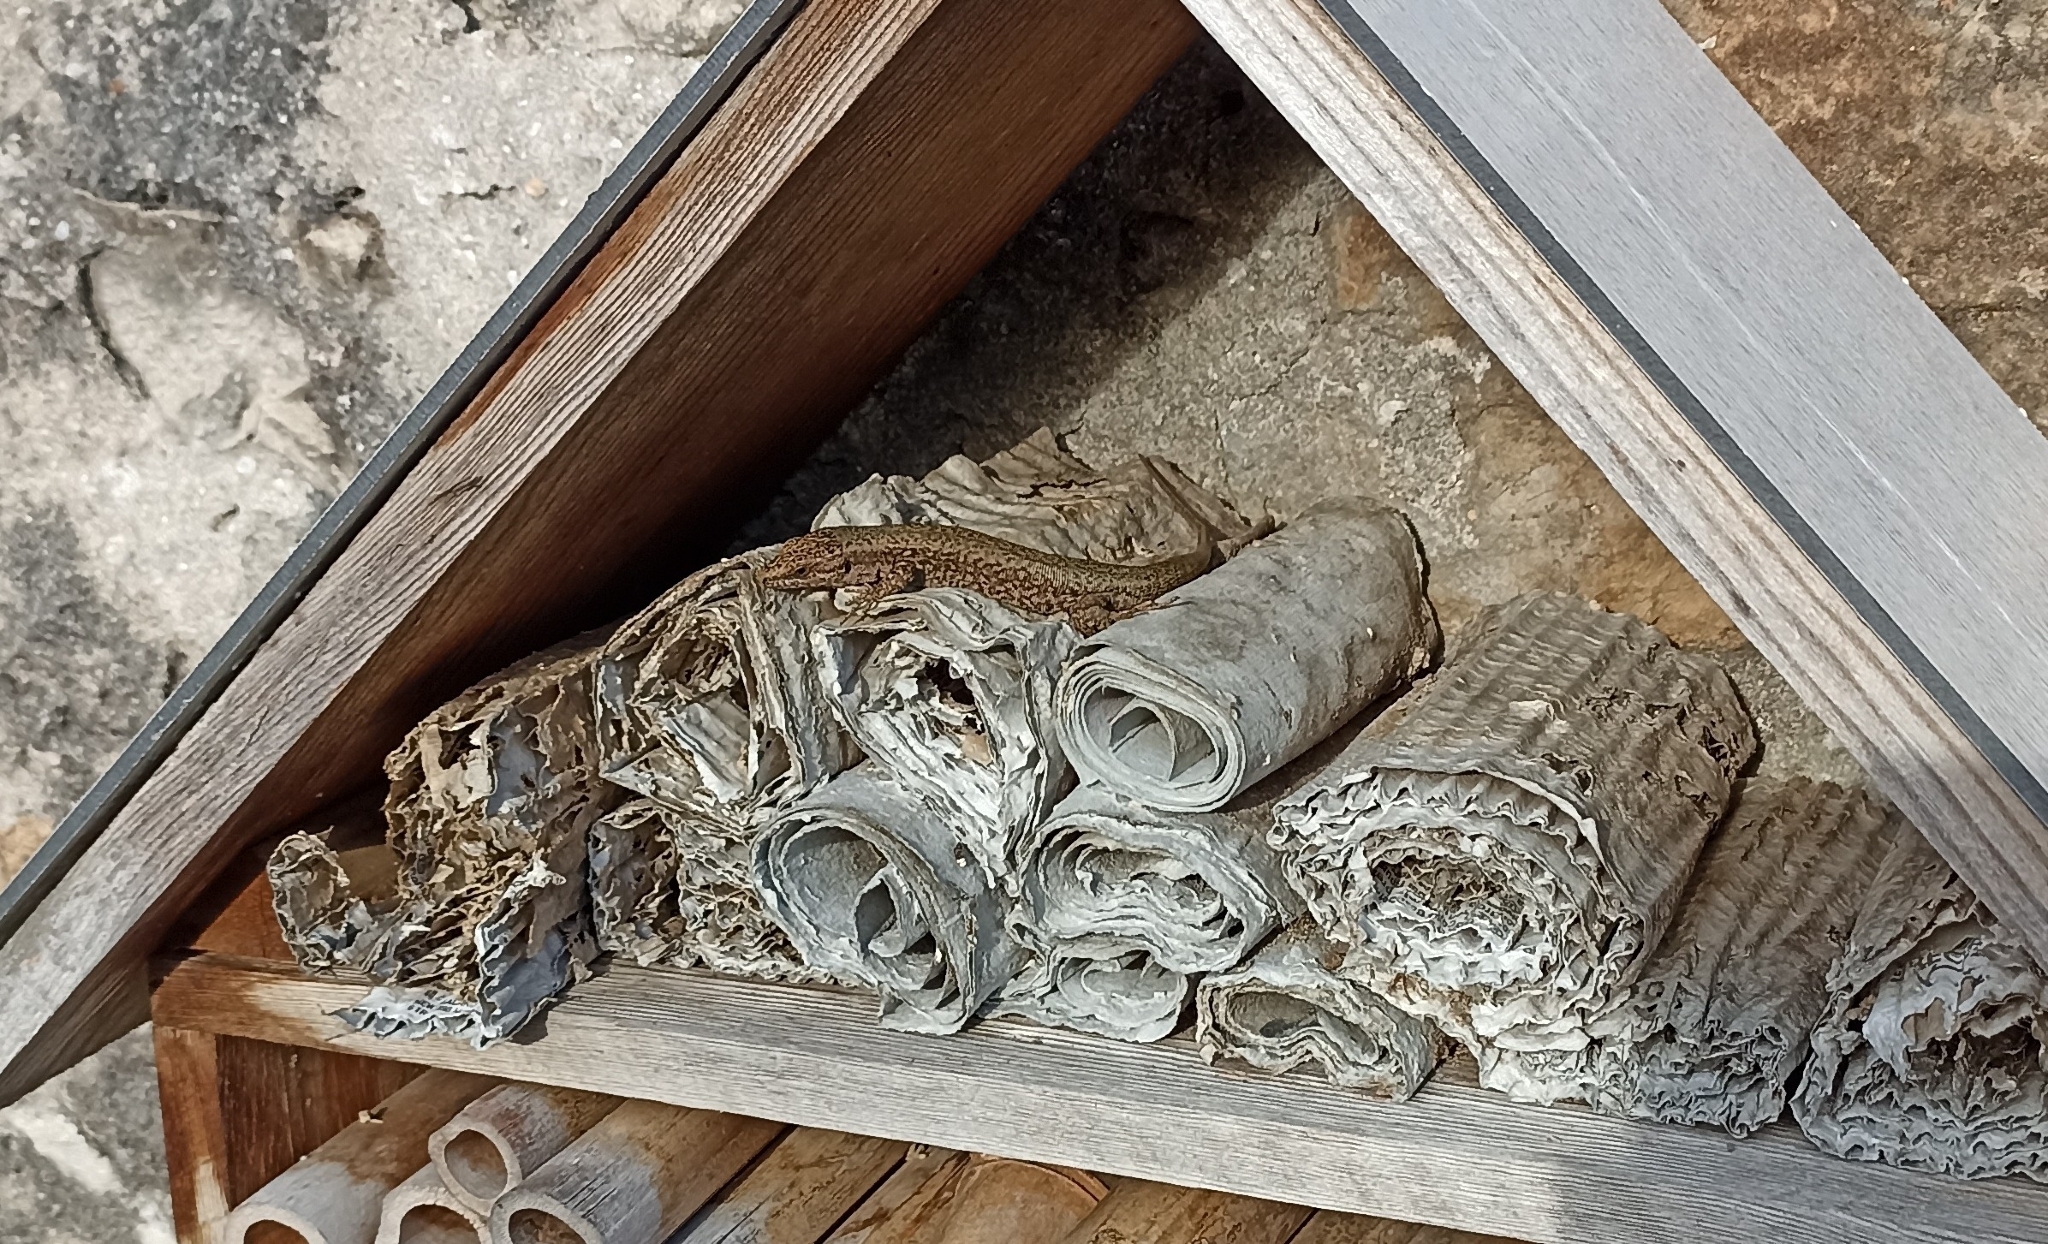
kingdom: Animalia
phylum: Chordata
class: Squamata
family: Lacertidae
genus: Podarcis
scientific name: Podarcis muralis
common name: Common wall lizard
